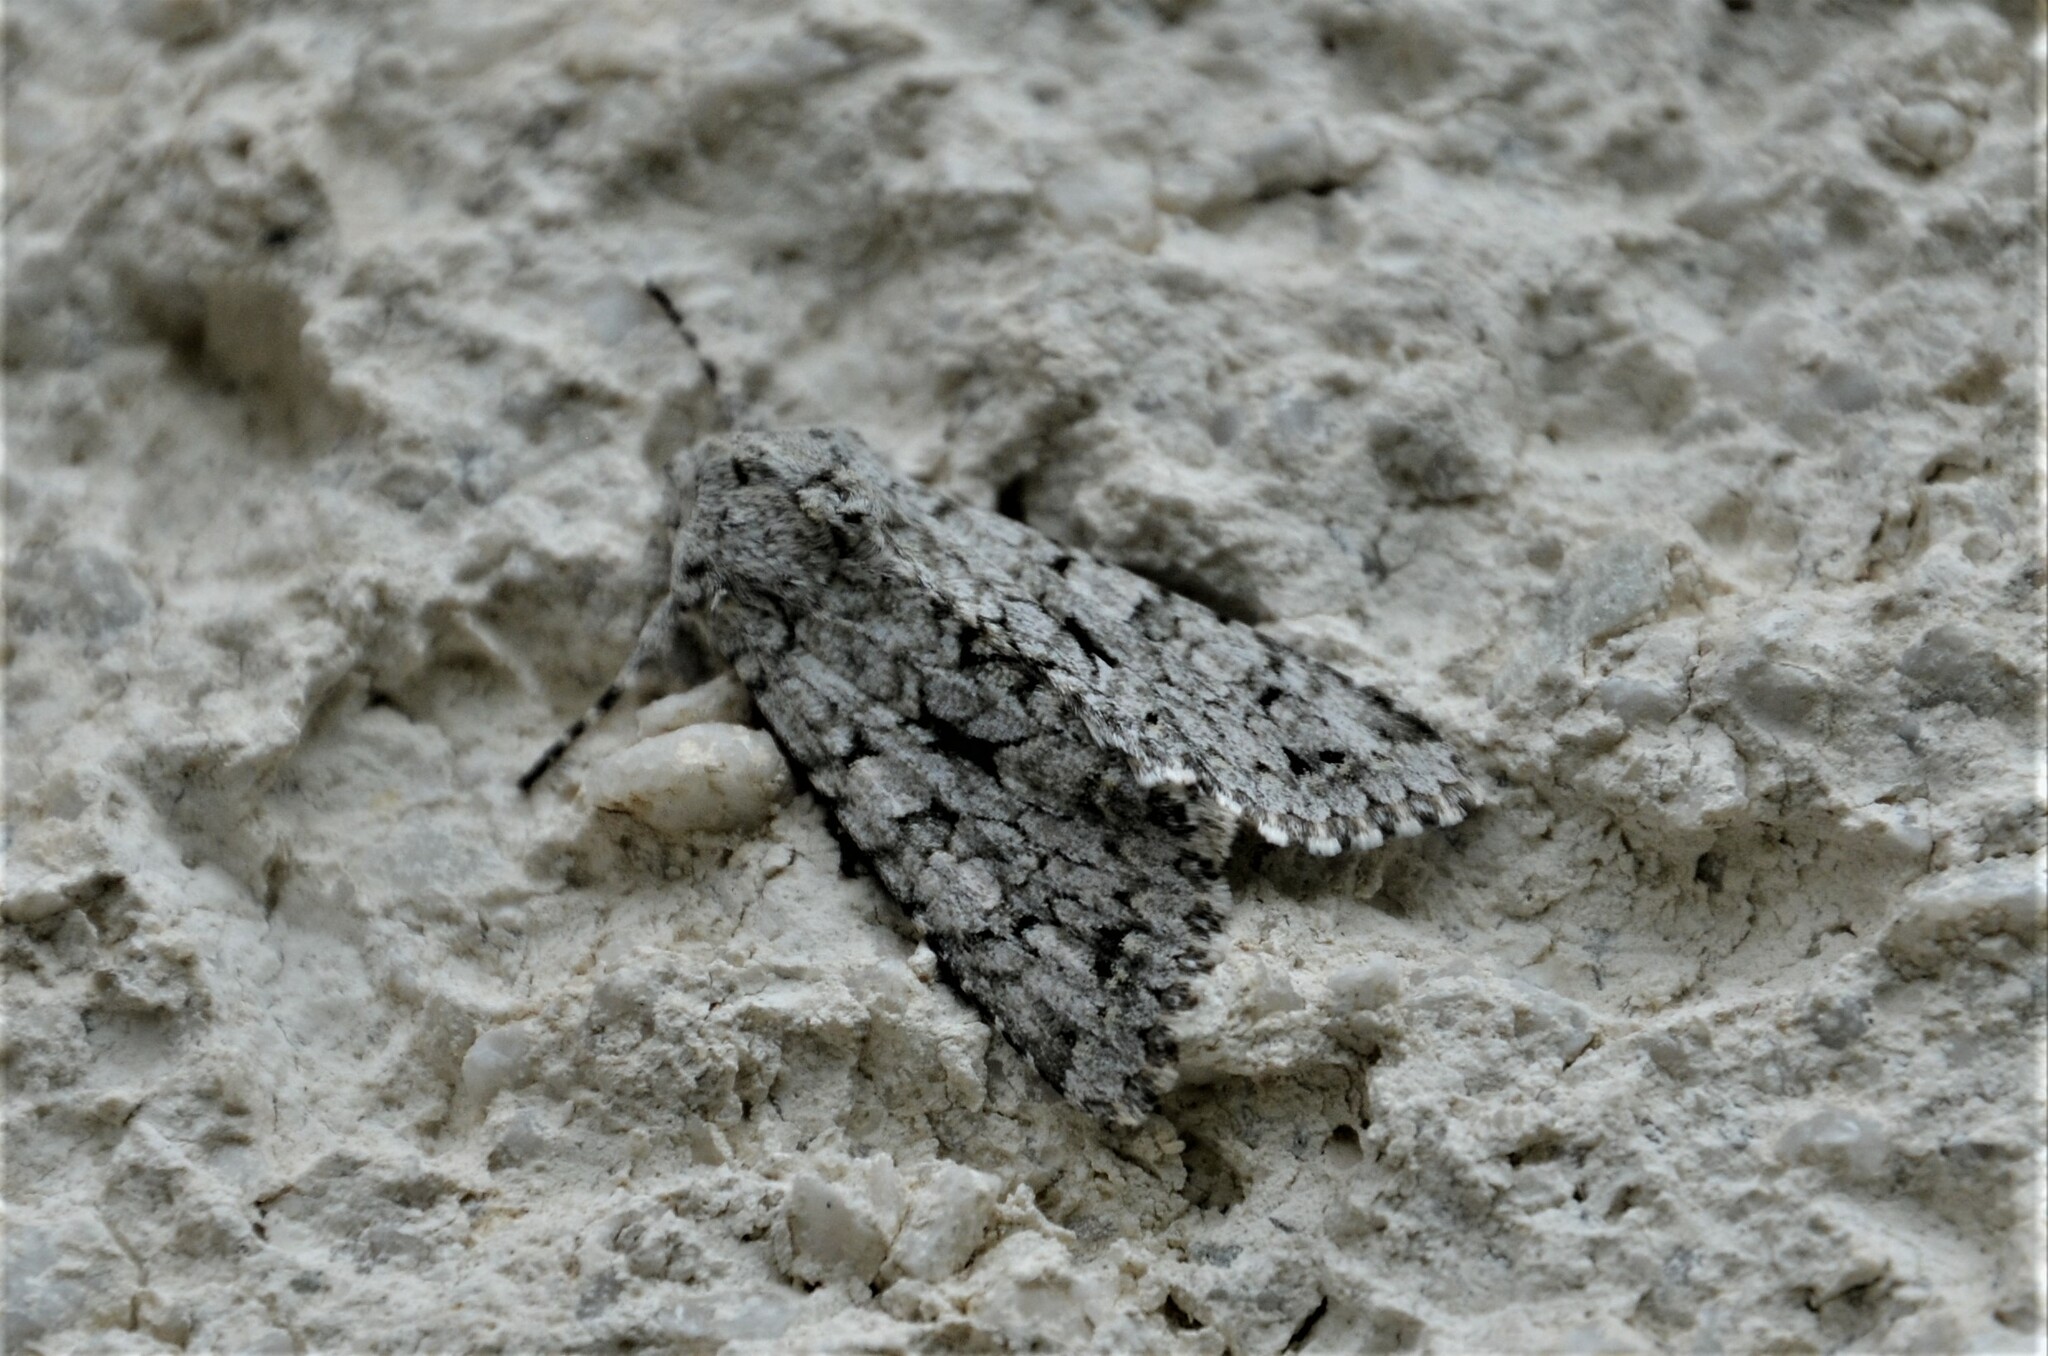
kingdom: Animalia
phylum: Arthropoda
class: Insecta
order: Lepidoptera
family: Noctuidae
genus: Antitype
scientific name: Antitype chi
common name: Grey chi
